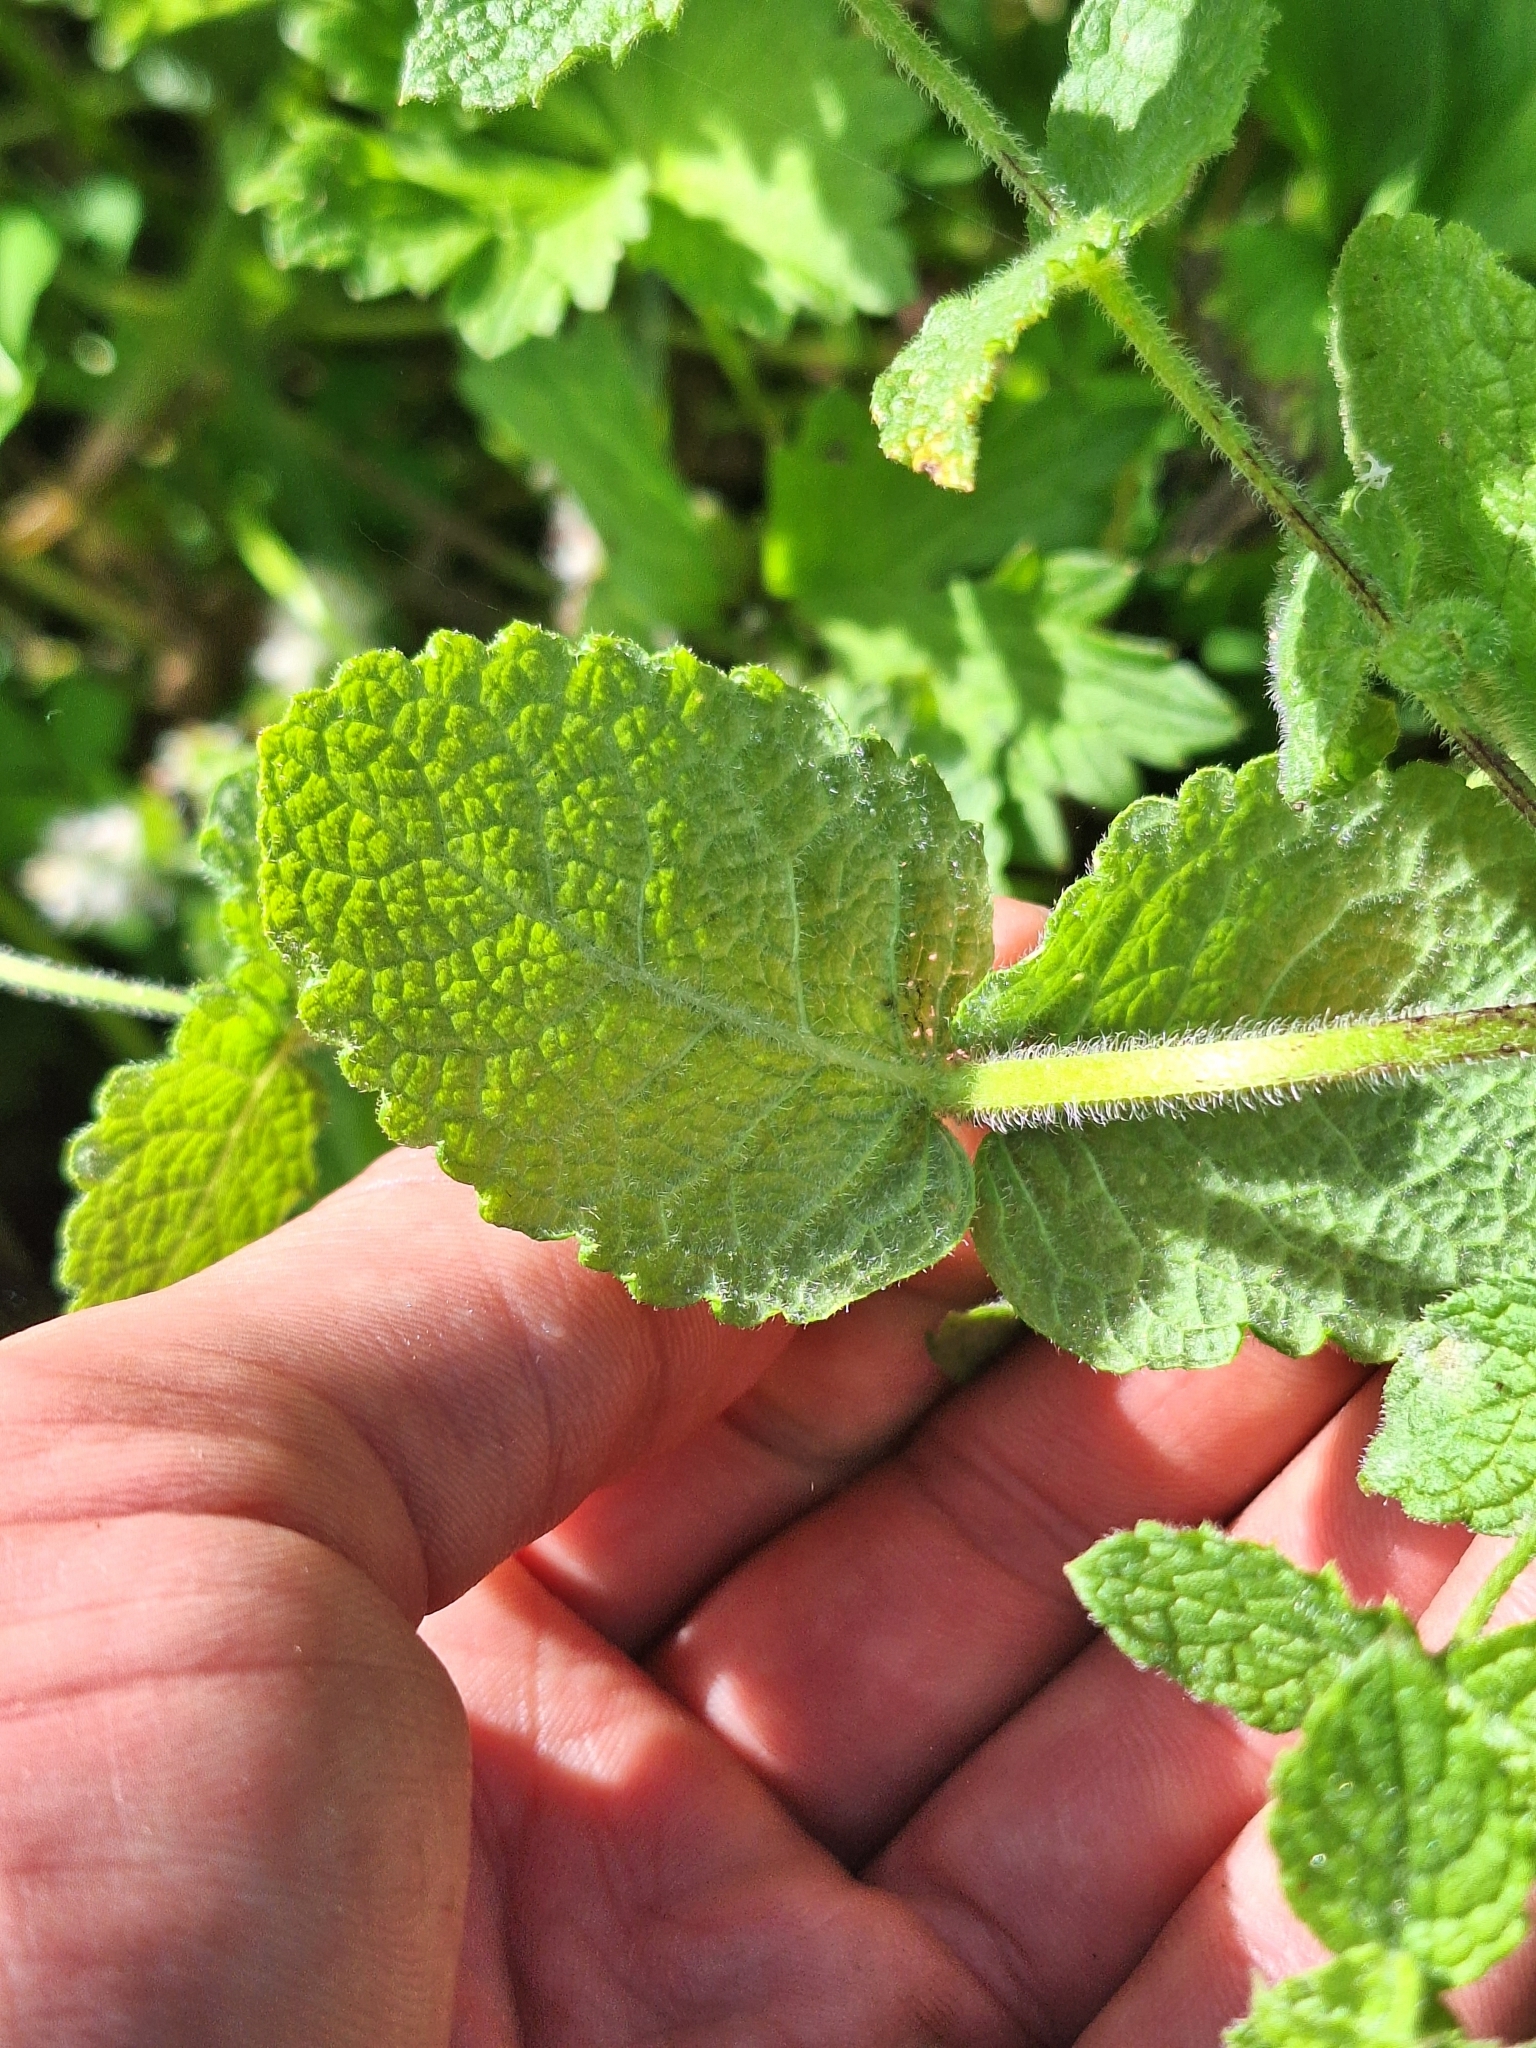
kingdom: Plantae
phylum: Tracheophyta
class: Magnoliopsida
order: Lamiales
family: Lamiaceae
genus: Mentha
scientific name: Mentha suaveolens
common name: Apple mint
